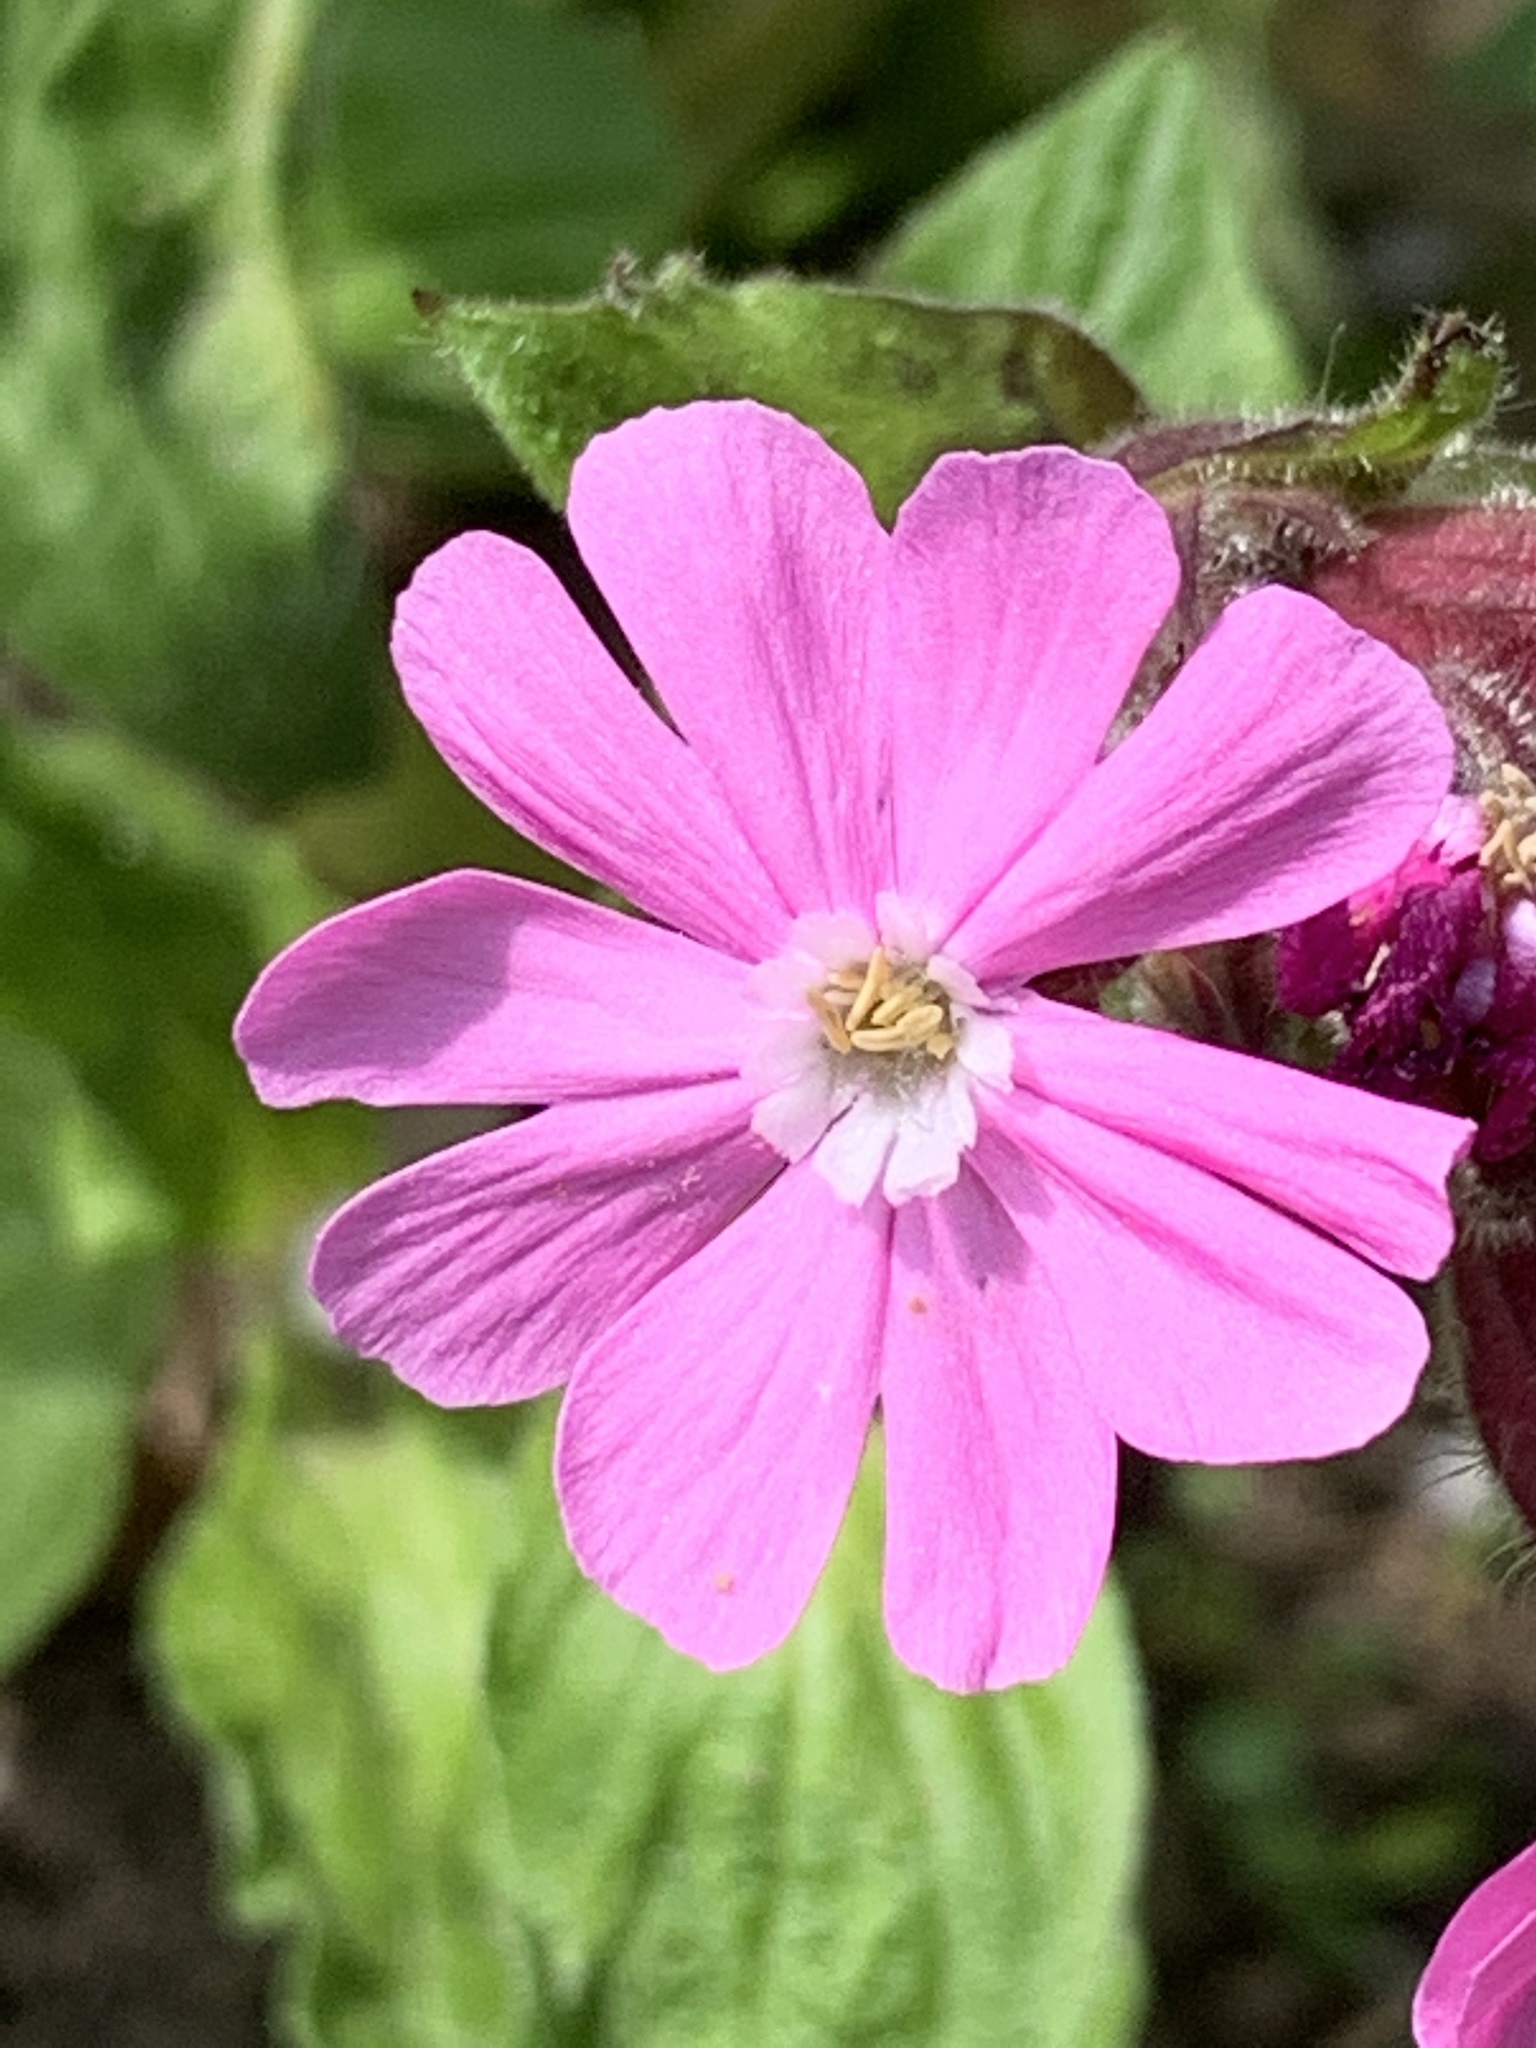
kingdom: Plantae
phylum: Tracheophyta
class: Magnoliopsida
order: Caryophyllales
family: Caryophyllaceae
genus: Silene
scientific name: Silene dioica
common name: Red campion
